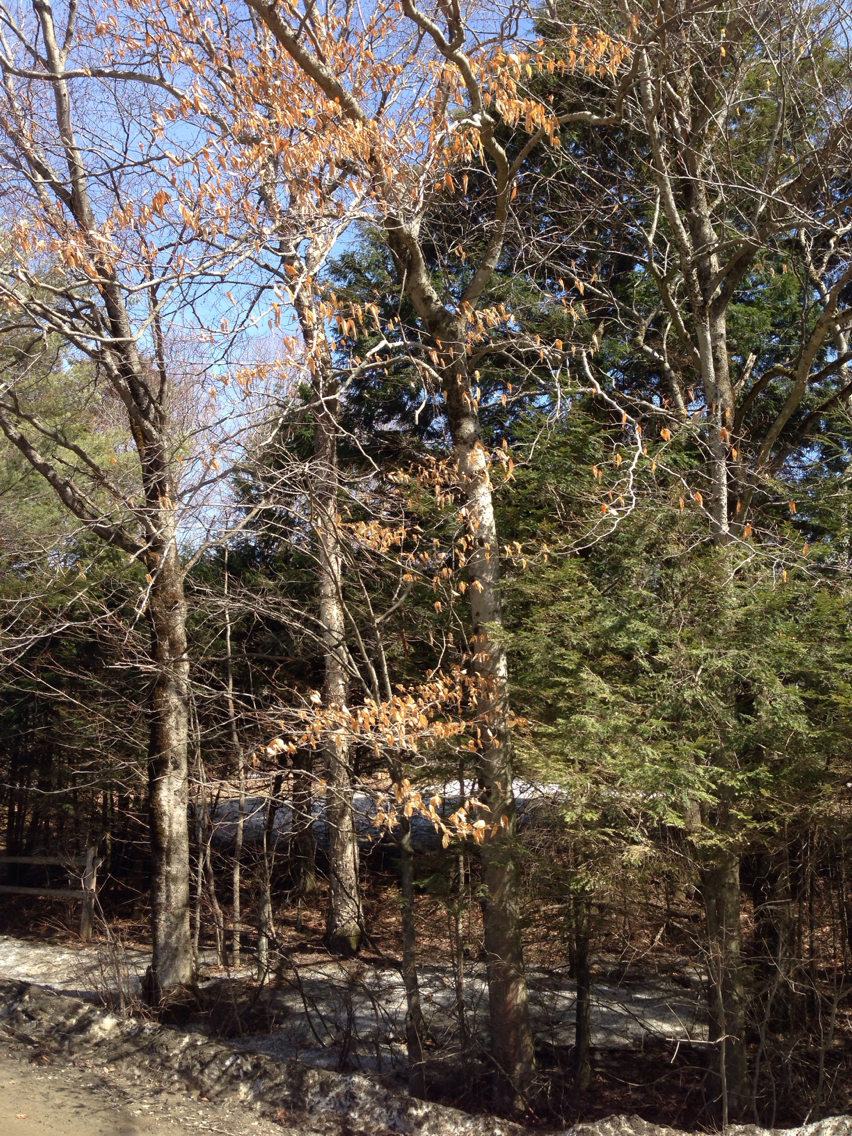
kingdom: Plantae
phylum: Tracheophyta
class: Magnoliopsida
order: Fagales
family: Fagaceae
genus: Fagus
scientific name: Fagus grandifolia
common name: American beech
